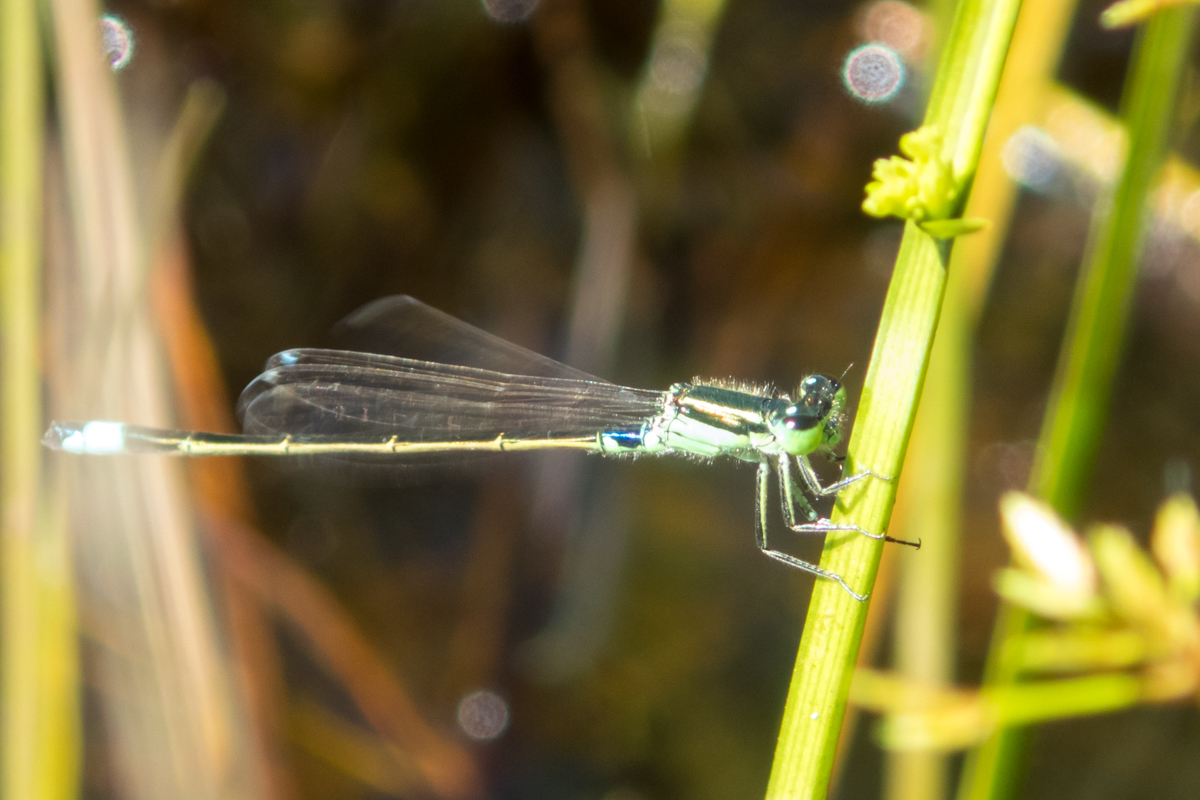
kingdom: Animalia
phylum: Arthropoda
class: Insecta
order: Odonata
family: Coenagrionidae
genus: Ischnura
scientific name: Ischnura senegalensis
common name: Tropical bluetail
